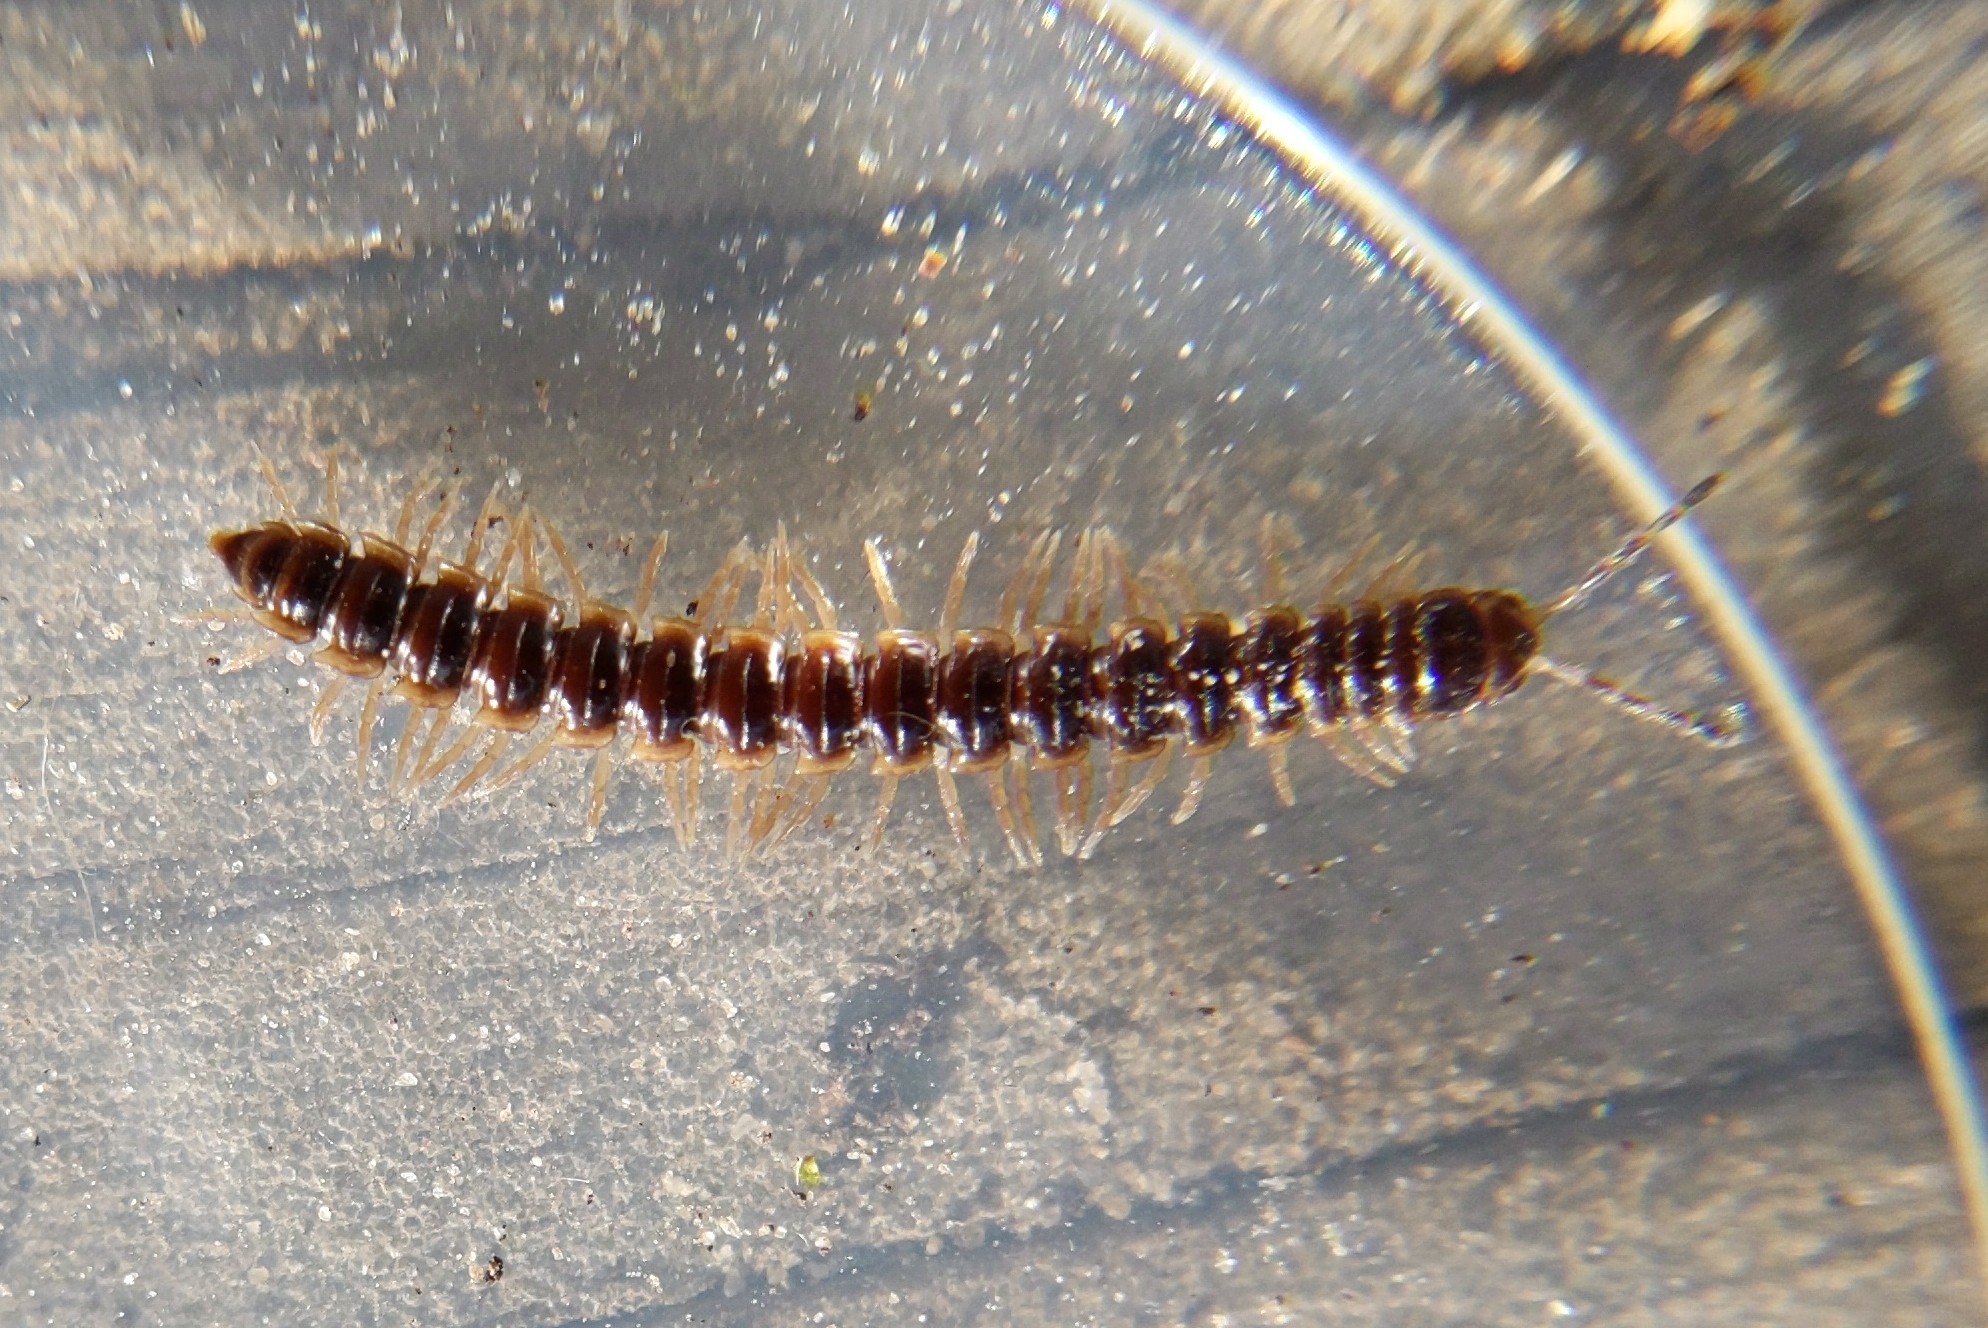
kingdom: Animalia
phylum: Arthropoda
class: Diplopoda
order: Polydesmida
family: Paradoxosomatidae
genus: Oxidus
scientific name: Oxidus gracilis
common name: Greenhouse millipede
